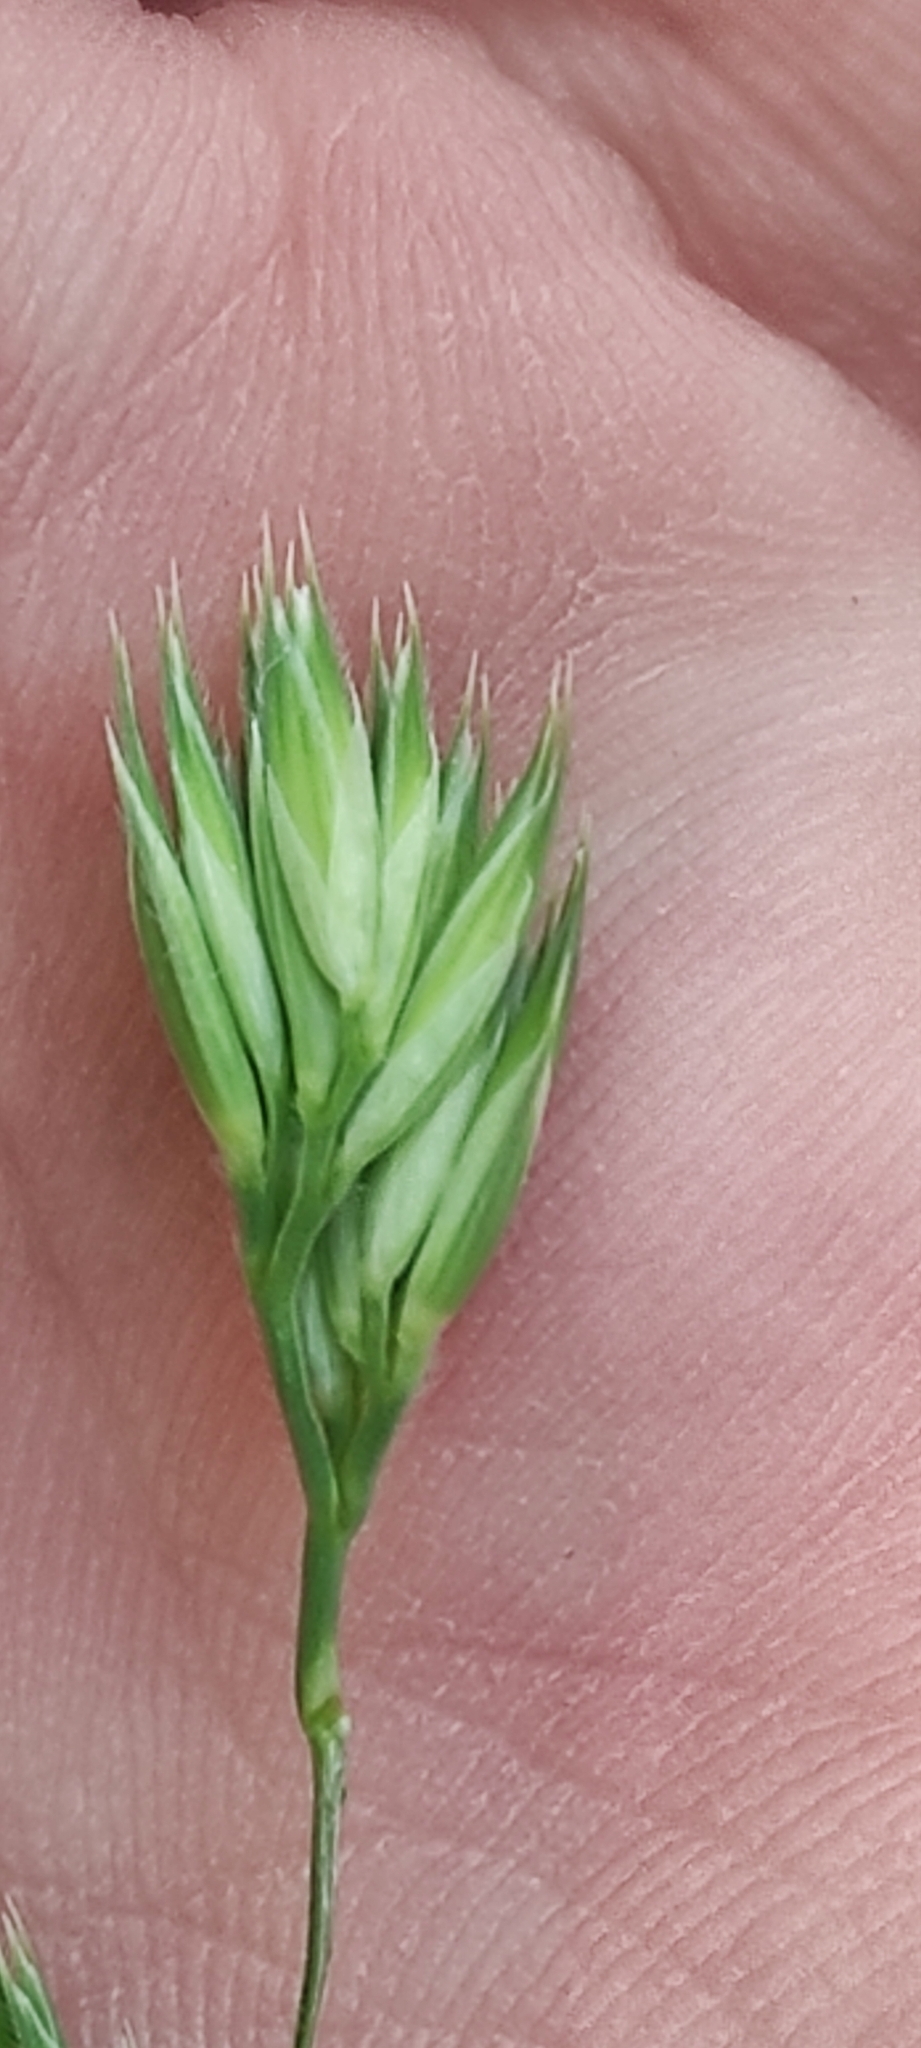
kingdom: Plantae
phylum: Tracheophyta
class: Liliopsida
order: Poales
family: Poaceae
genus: Dactylis
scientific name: Dactylis glomerata
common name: Orchardgrass
